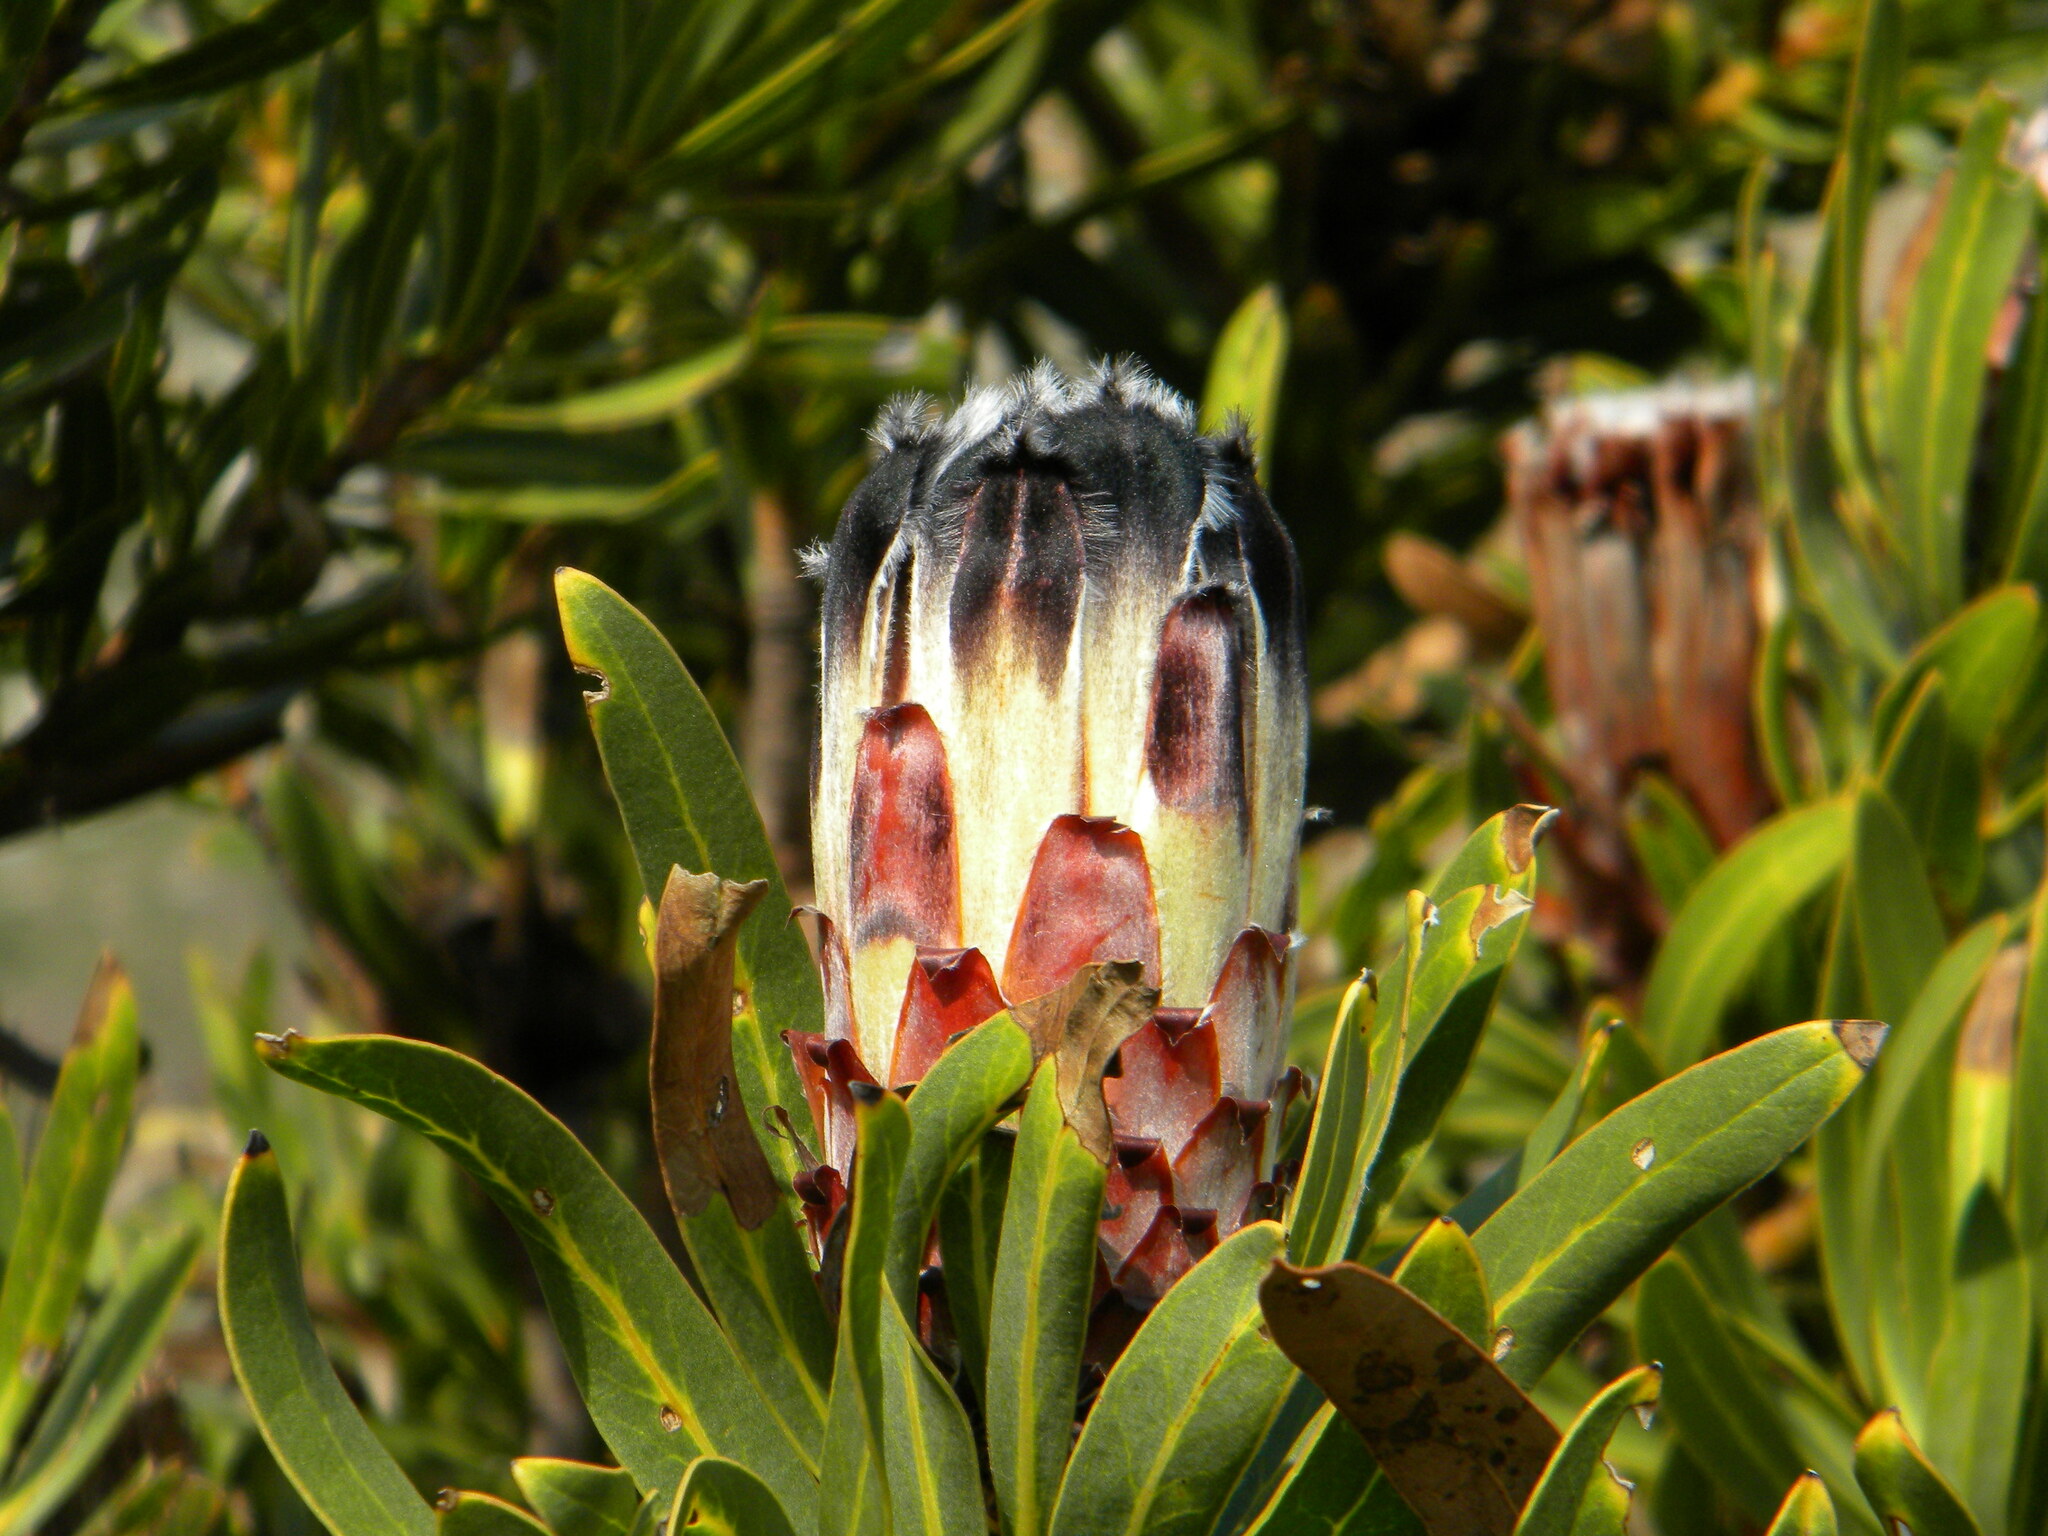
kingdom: Plantae
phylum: Tracheophyta
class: Magnoliopsida
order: Proteales
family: Proteaceae
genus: Protea
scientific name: Protea lepidocarpodendron
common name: Black-bearded protea
